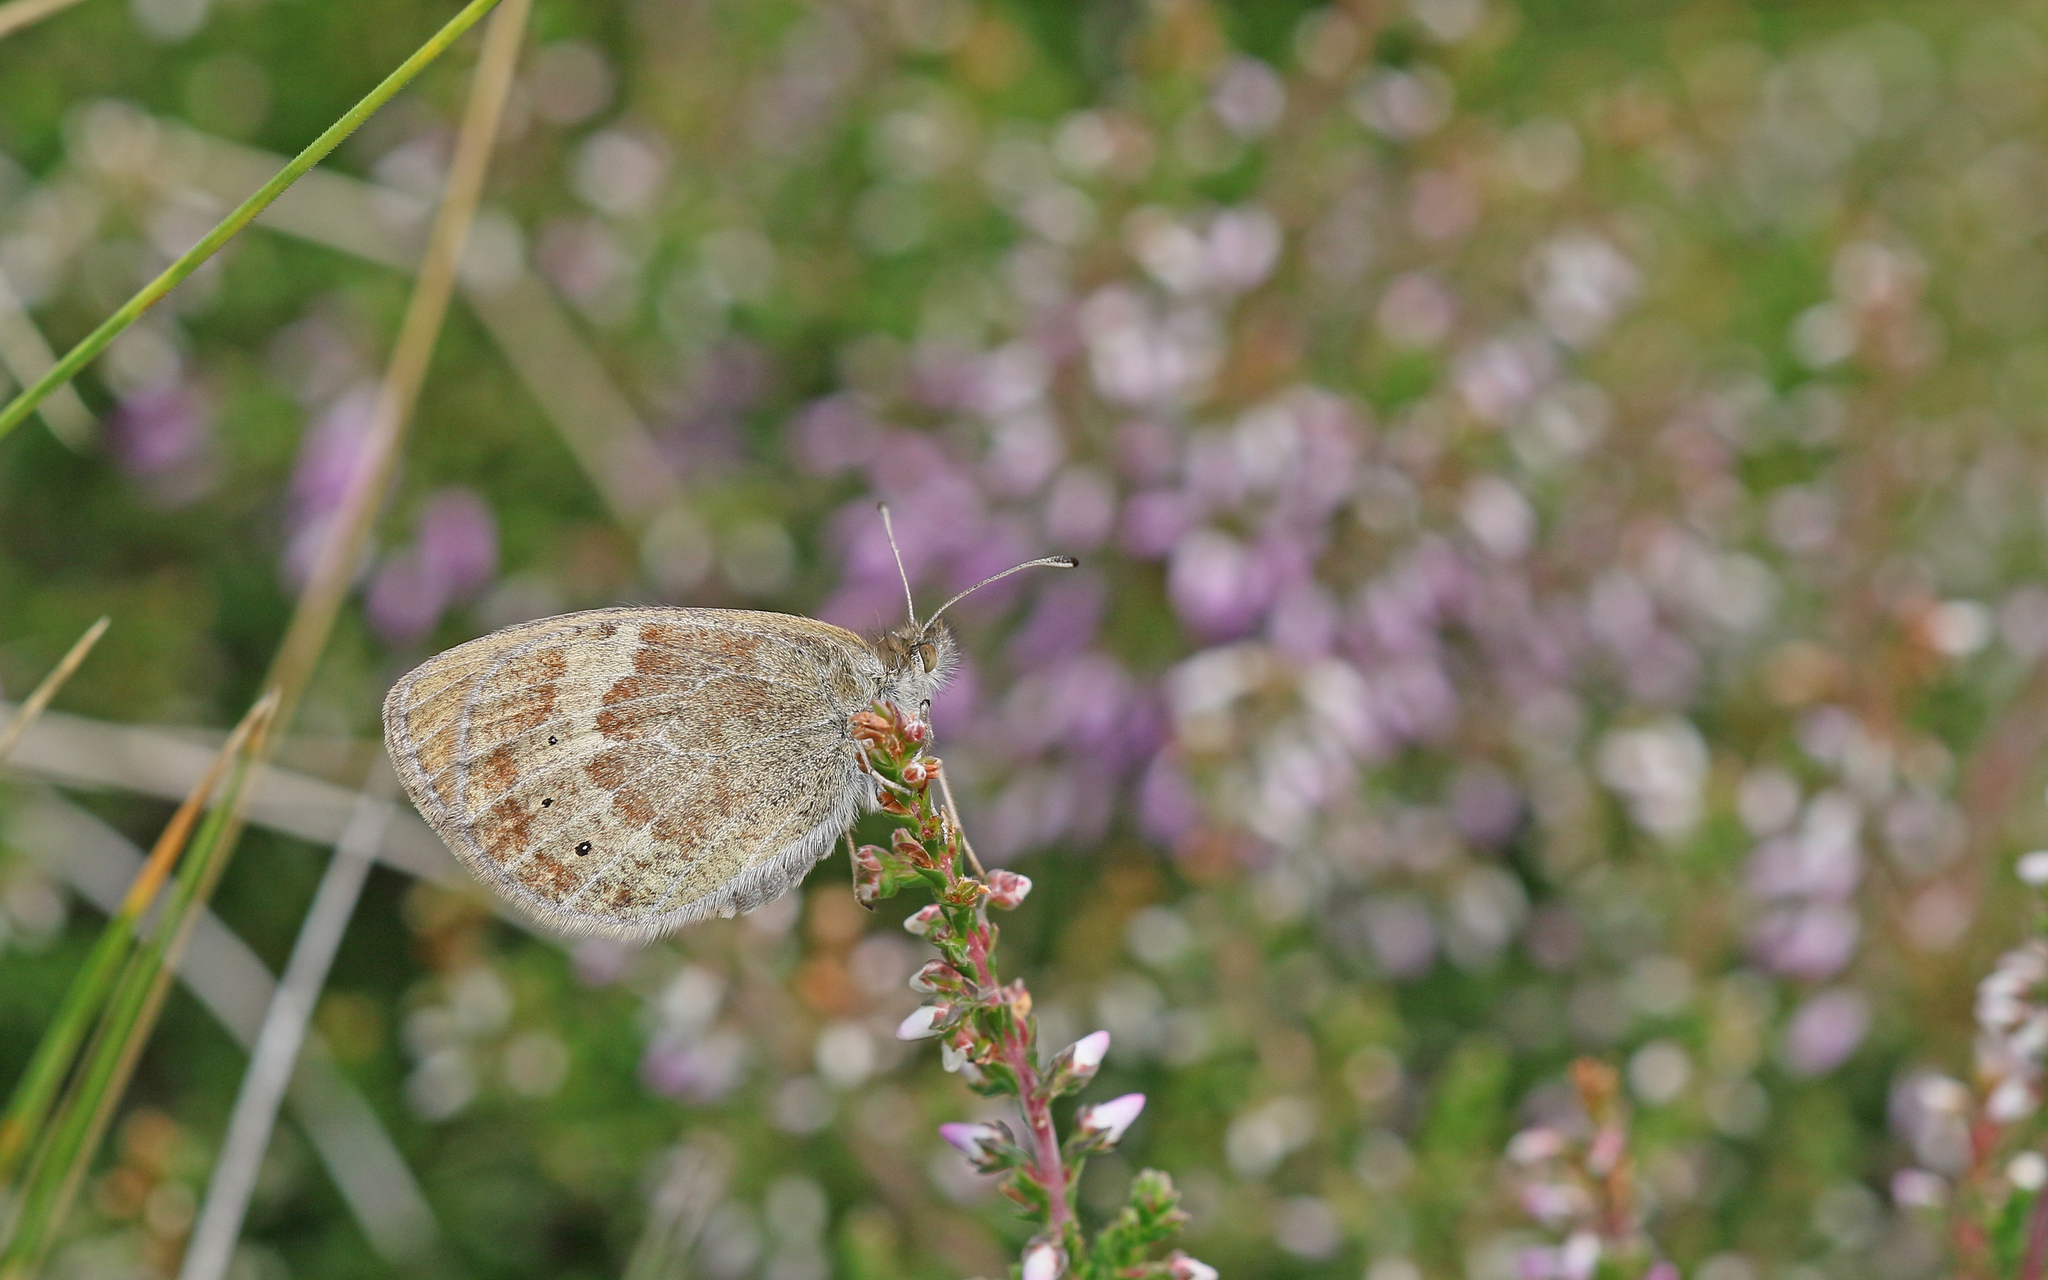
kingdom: Animalia
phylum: Arthropoda
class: Insecta
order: Lepidoptera
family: Nymphalidae
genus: Erebia
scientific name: Erebia tyndarus
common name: Swiss brassy ringlet
